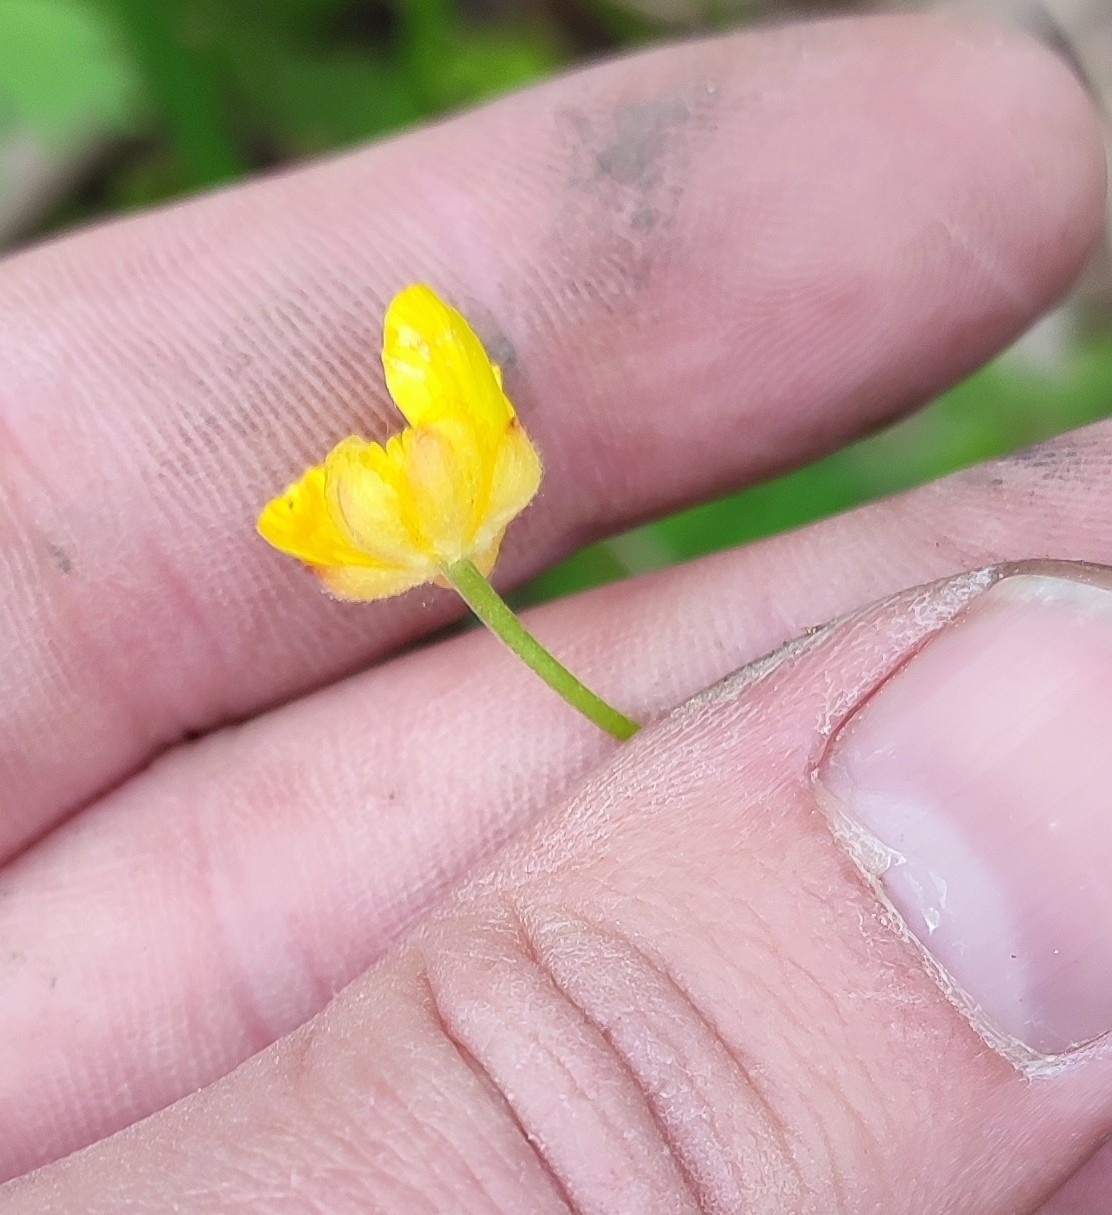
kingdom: Plantae
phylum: Tracheophyta
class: Magnoliopsida
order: Ranunculales
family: Ranunculaceae
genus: Ranunculus
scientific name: Ranunculus auricomus
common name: Goldilocks buttercup
